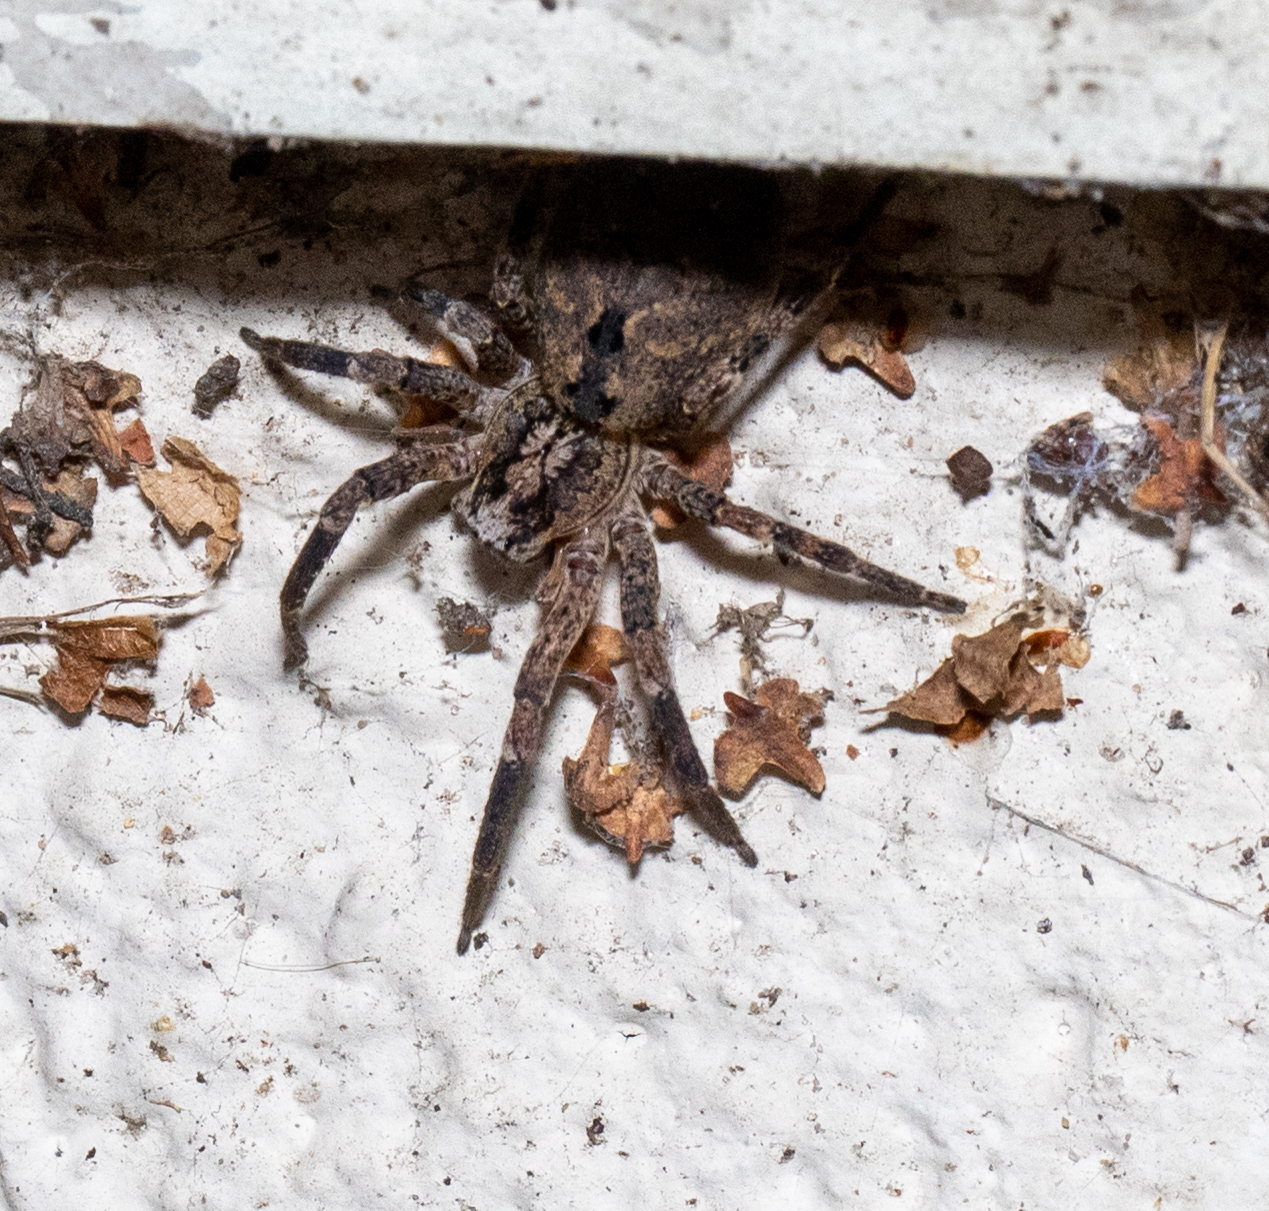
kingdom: Animalia
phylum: Arthropoda
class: Arachnida
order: Araneae
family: Zoropsidae
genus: Zoropsis
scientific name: Zoropsis spinimana
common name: Zoropsid spider
